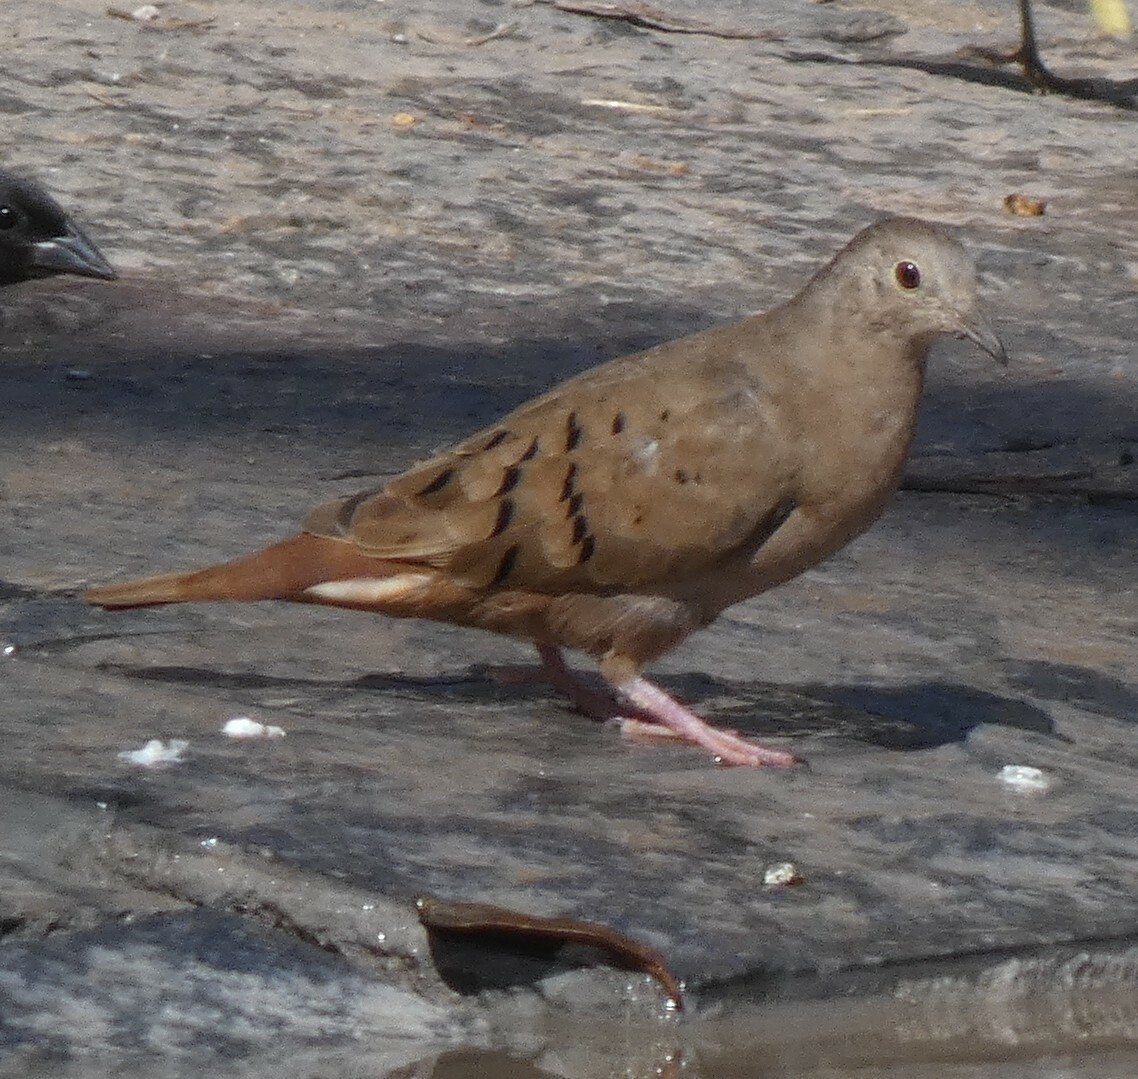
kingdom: Animalia
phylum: Chordata
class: Aves
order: Columbiformes
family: Columbidae
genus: Columbina
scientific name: Columbina talpacoti
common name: Ruddy ground dove
